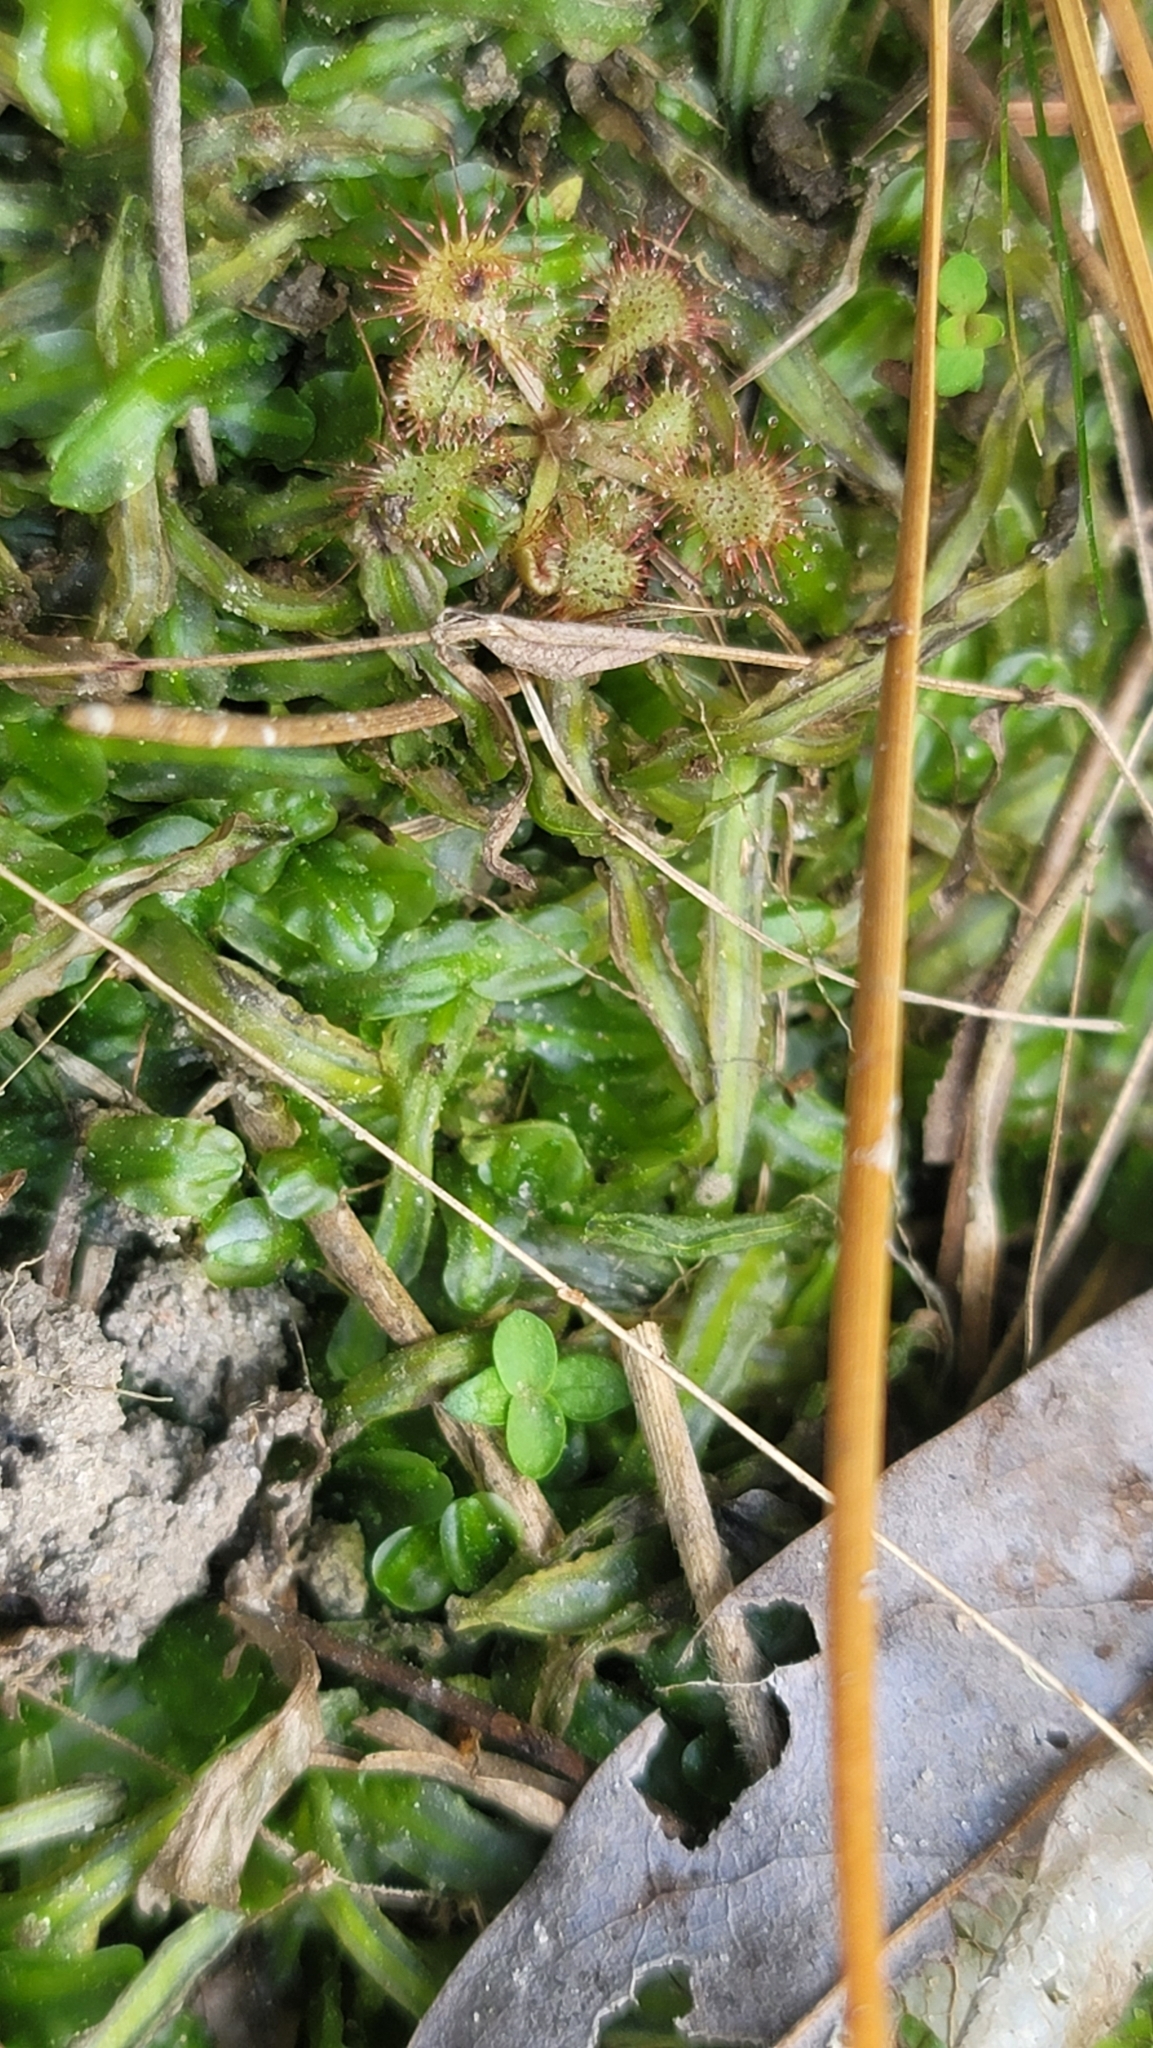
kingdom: Plantae
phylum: Tracheophyta
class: Magnoliopsida
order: Caryophyllales
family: Droseraceae
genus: Drosera
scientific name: Drosera capillaris
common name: Pink sundew
